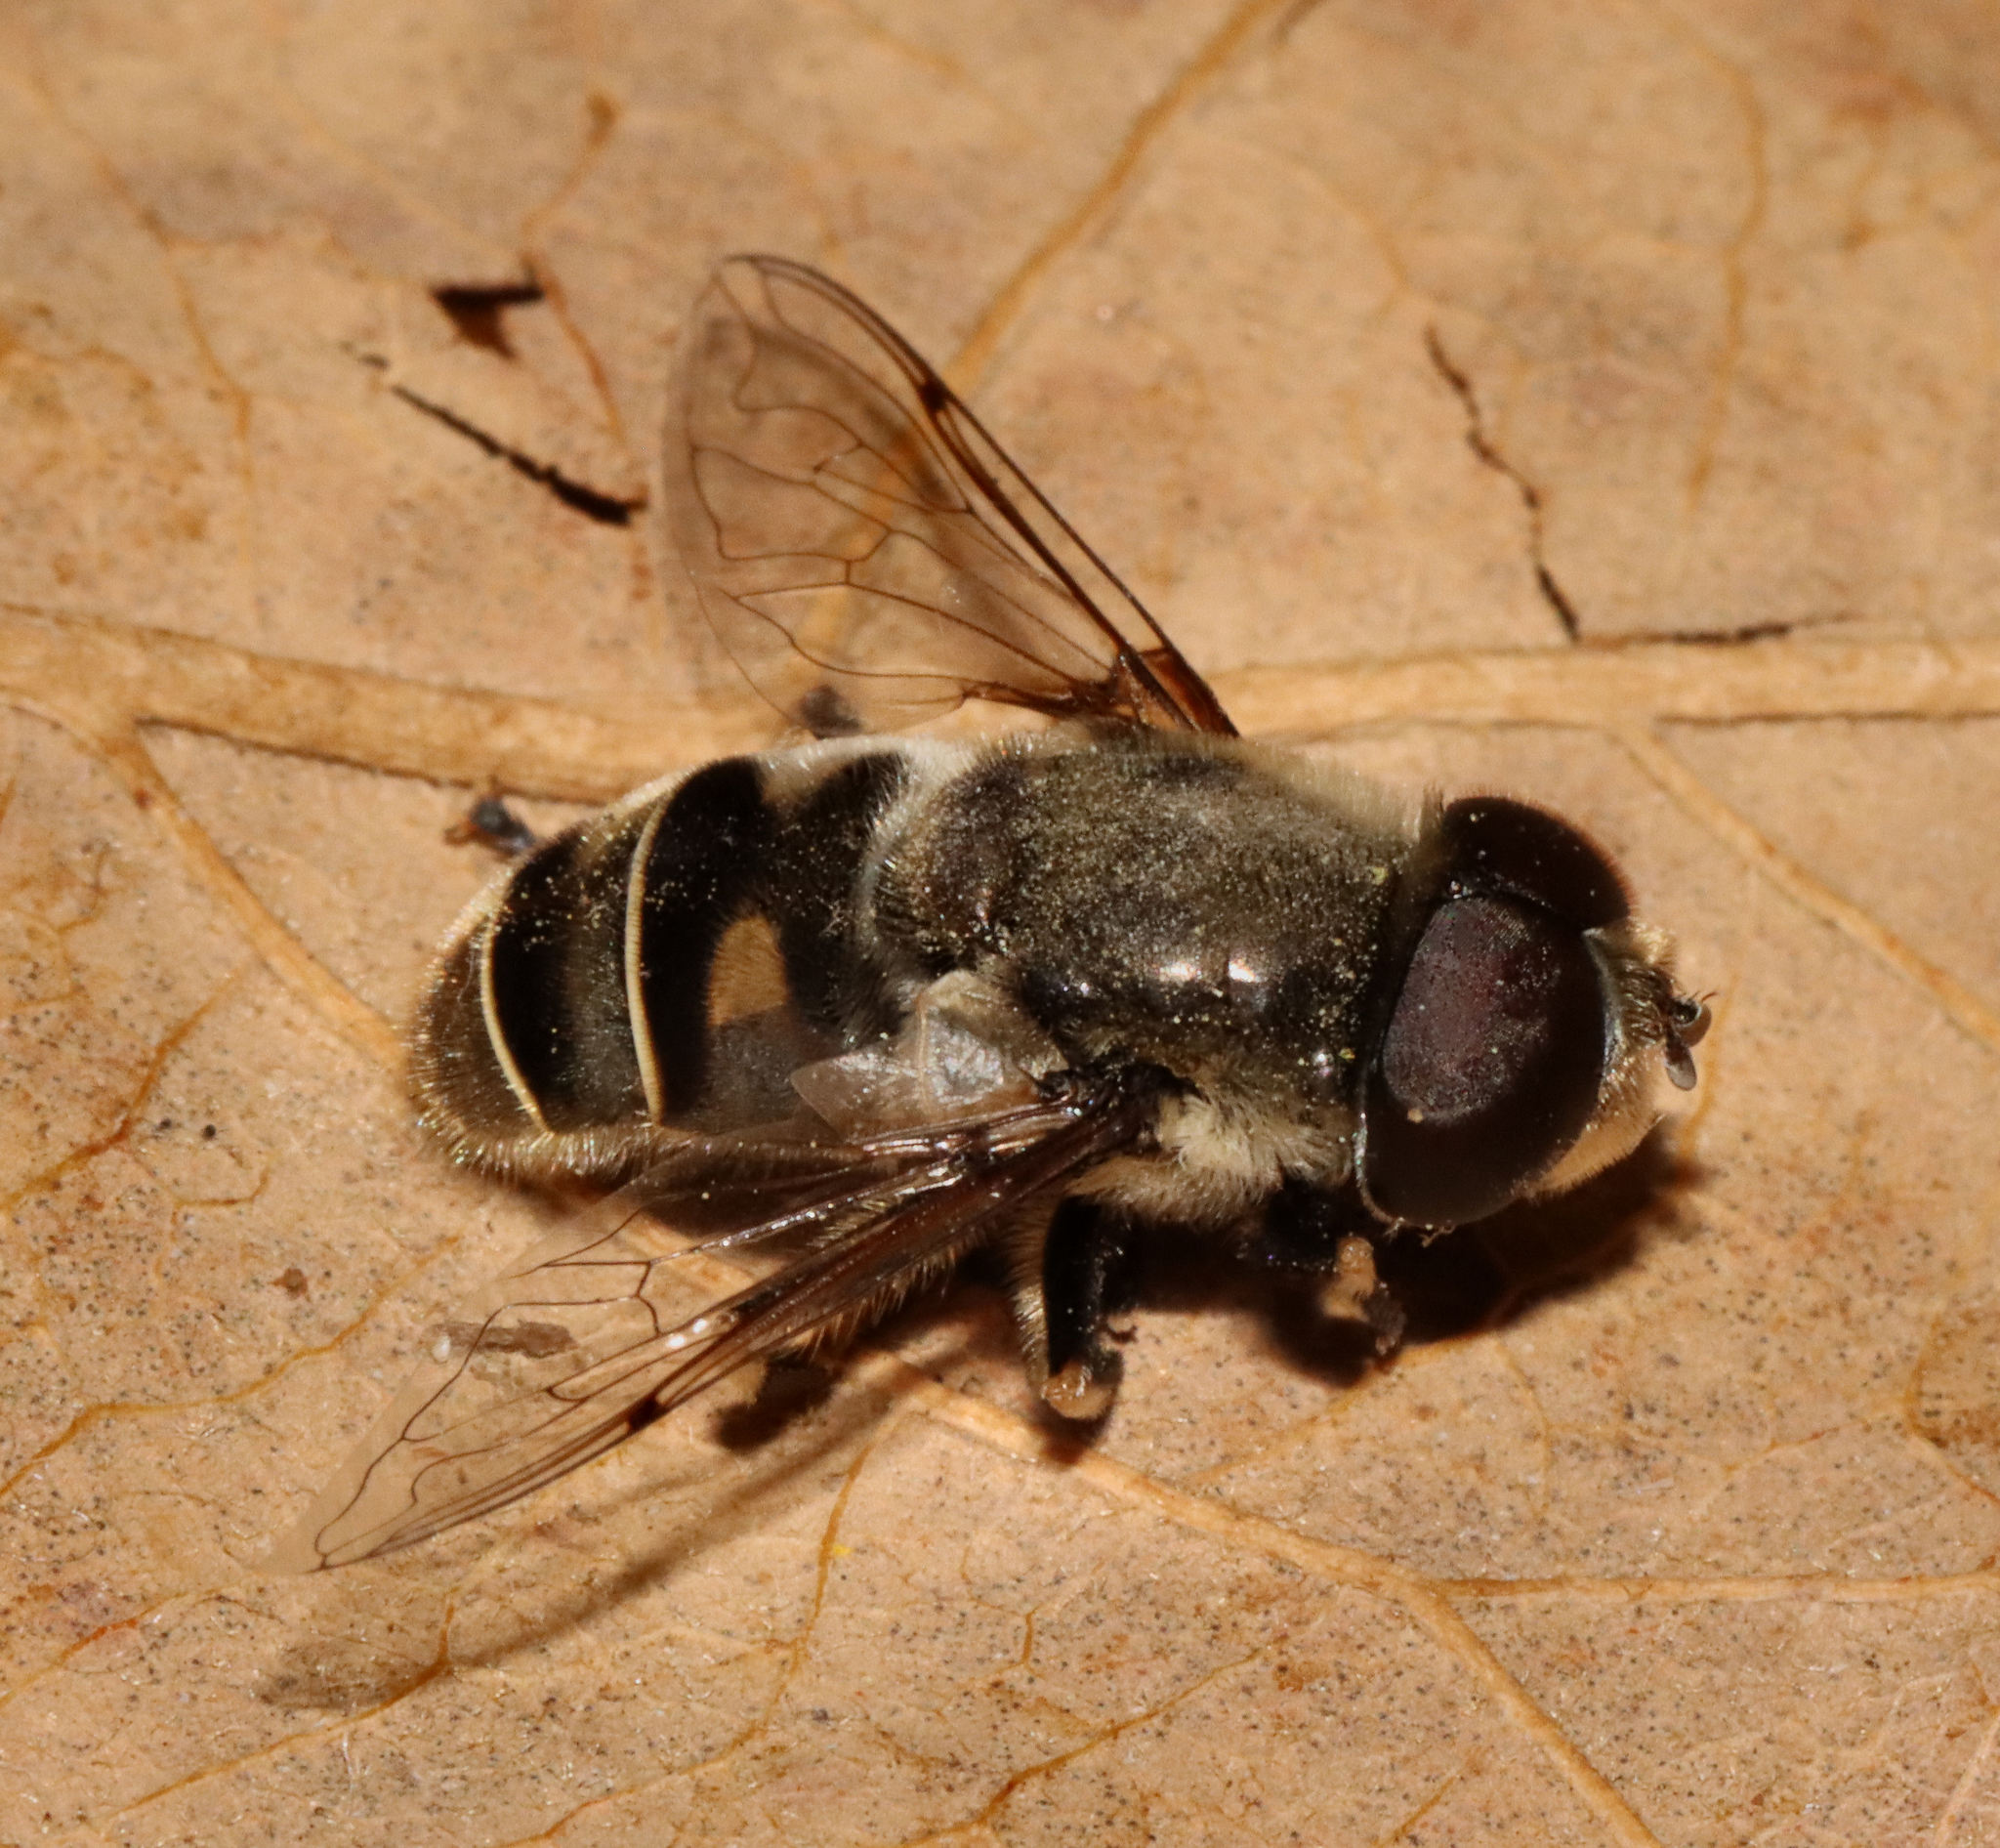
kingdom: Animalia
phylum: Arthropoda
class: Insecta
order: Diptera
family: Syrphidae
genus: Eristalis
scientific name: Eristalis dimidiata
